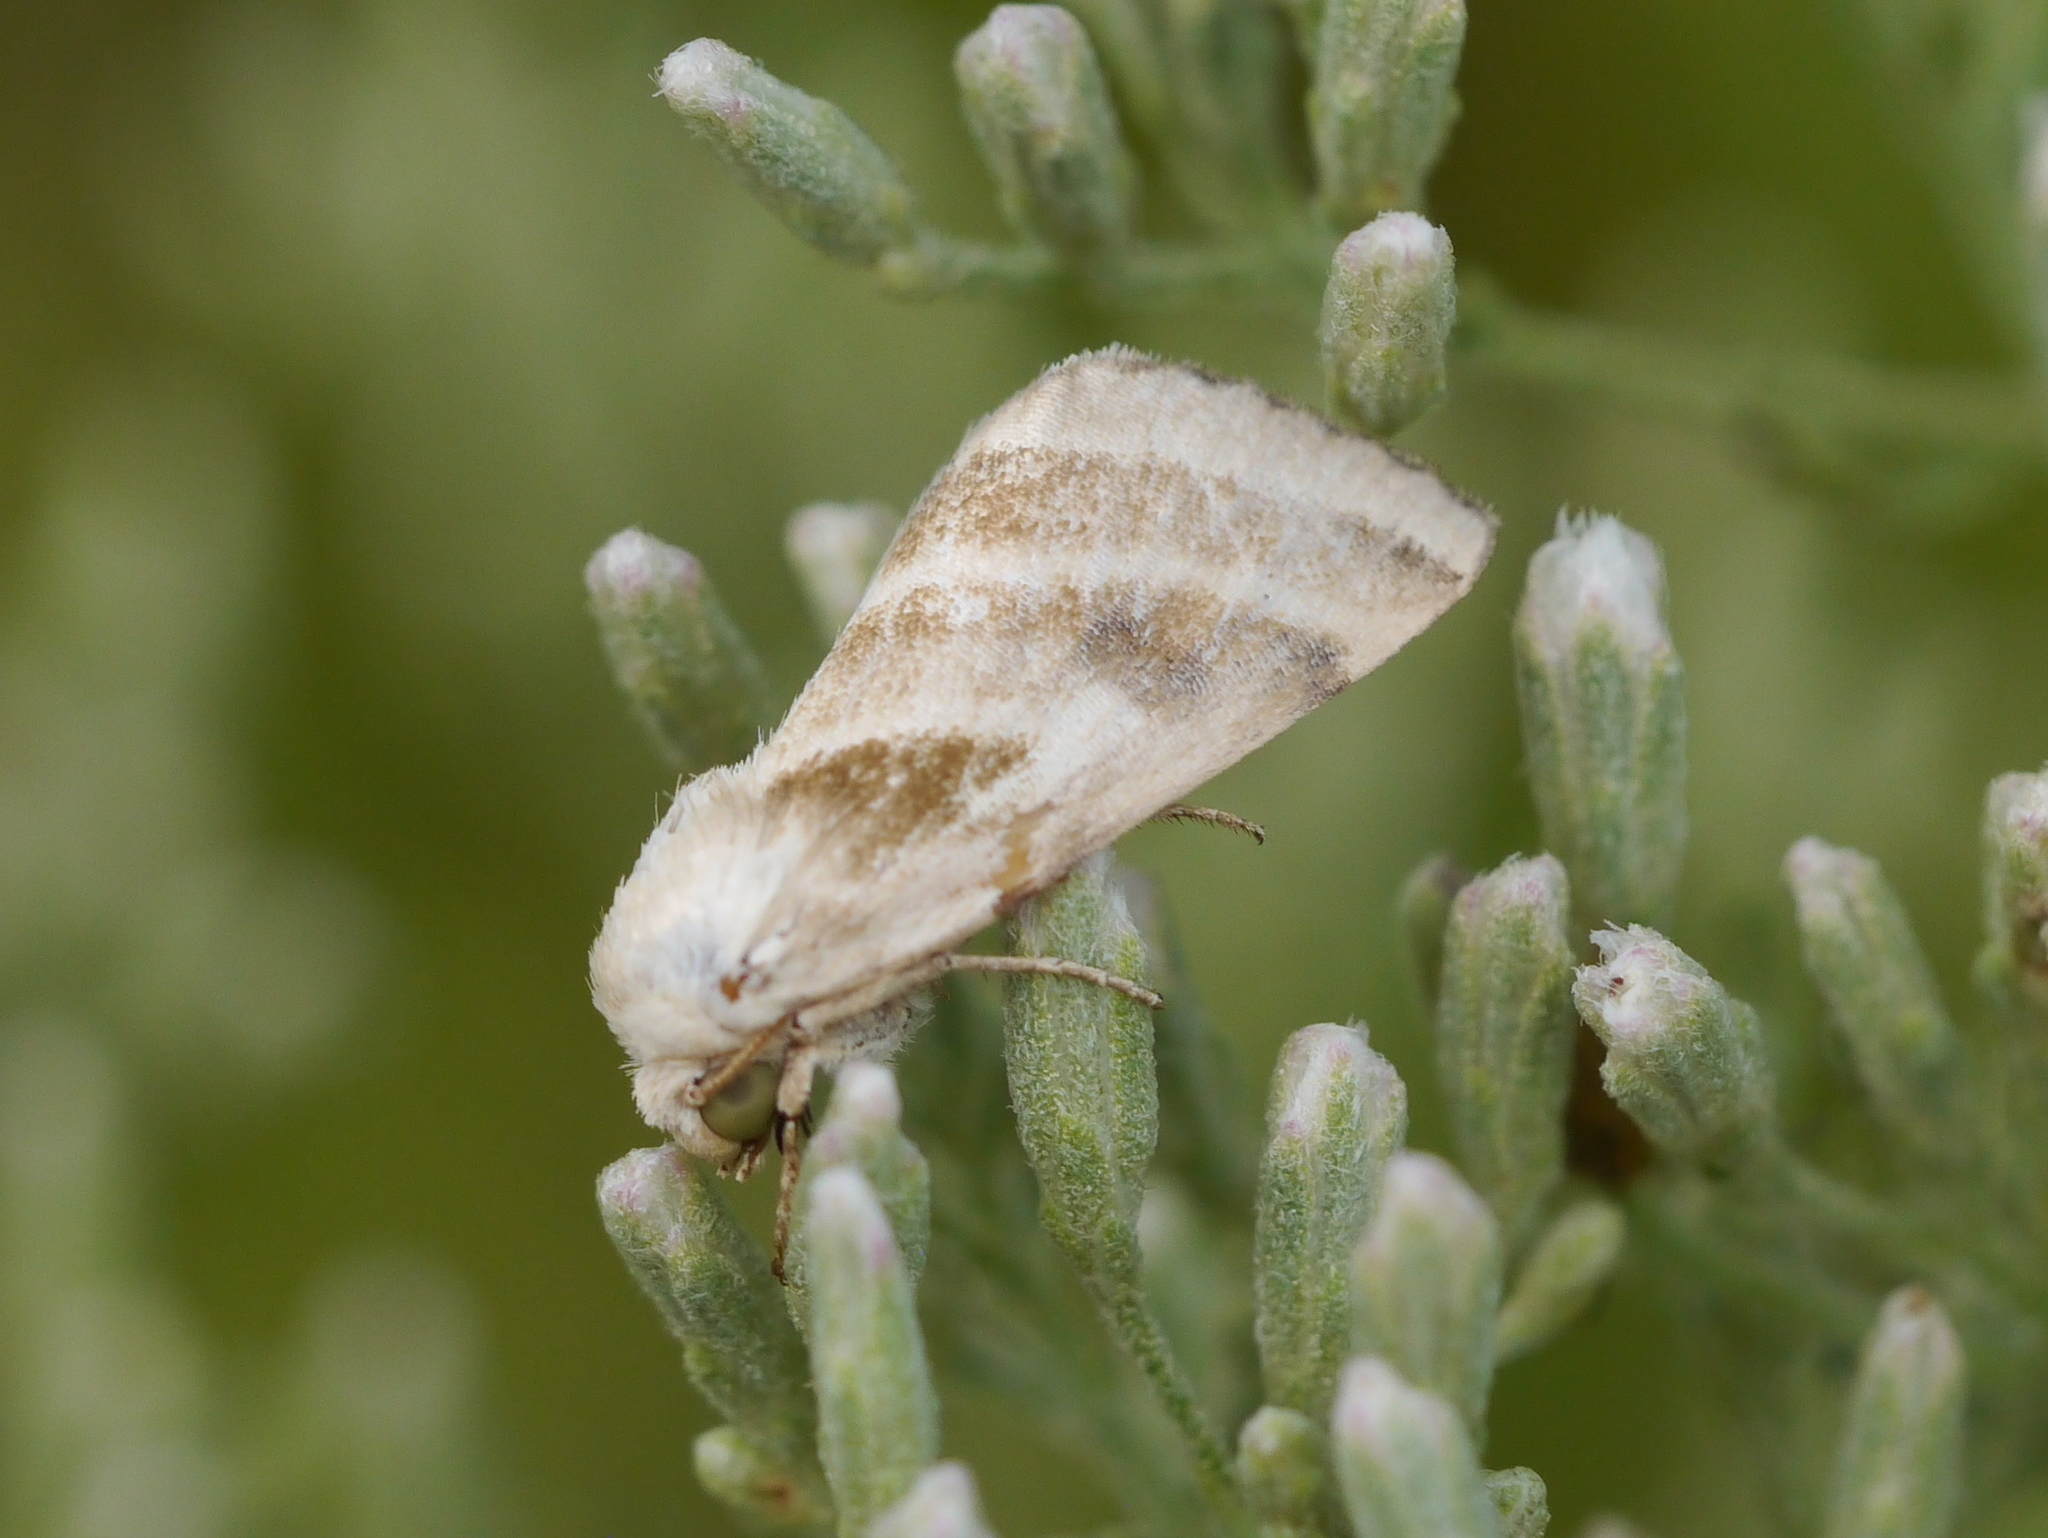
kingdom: Animalia
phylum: Arthropoda
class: Insecta
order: Lepidoptera
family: Noctuidae
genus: Schinia
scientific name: Schinia trifascia
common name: Three-lined flower moth
